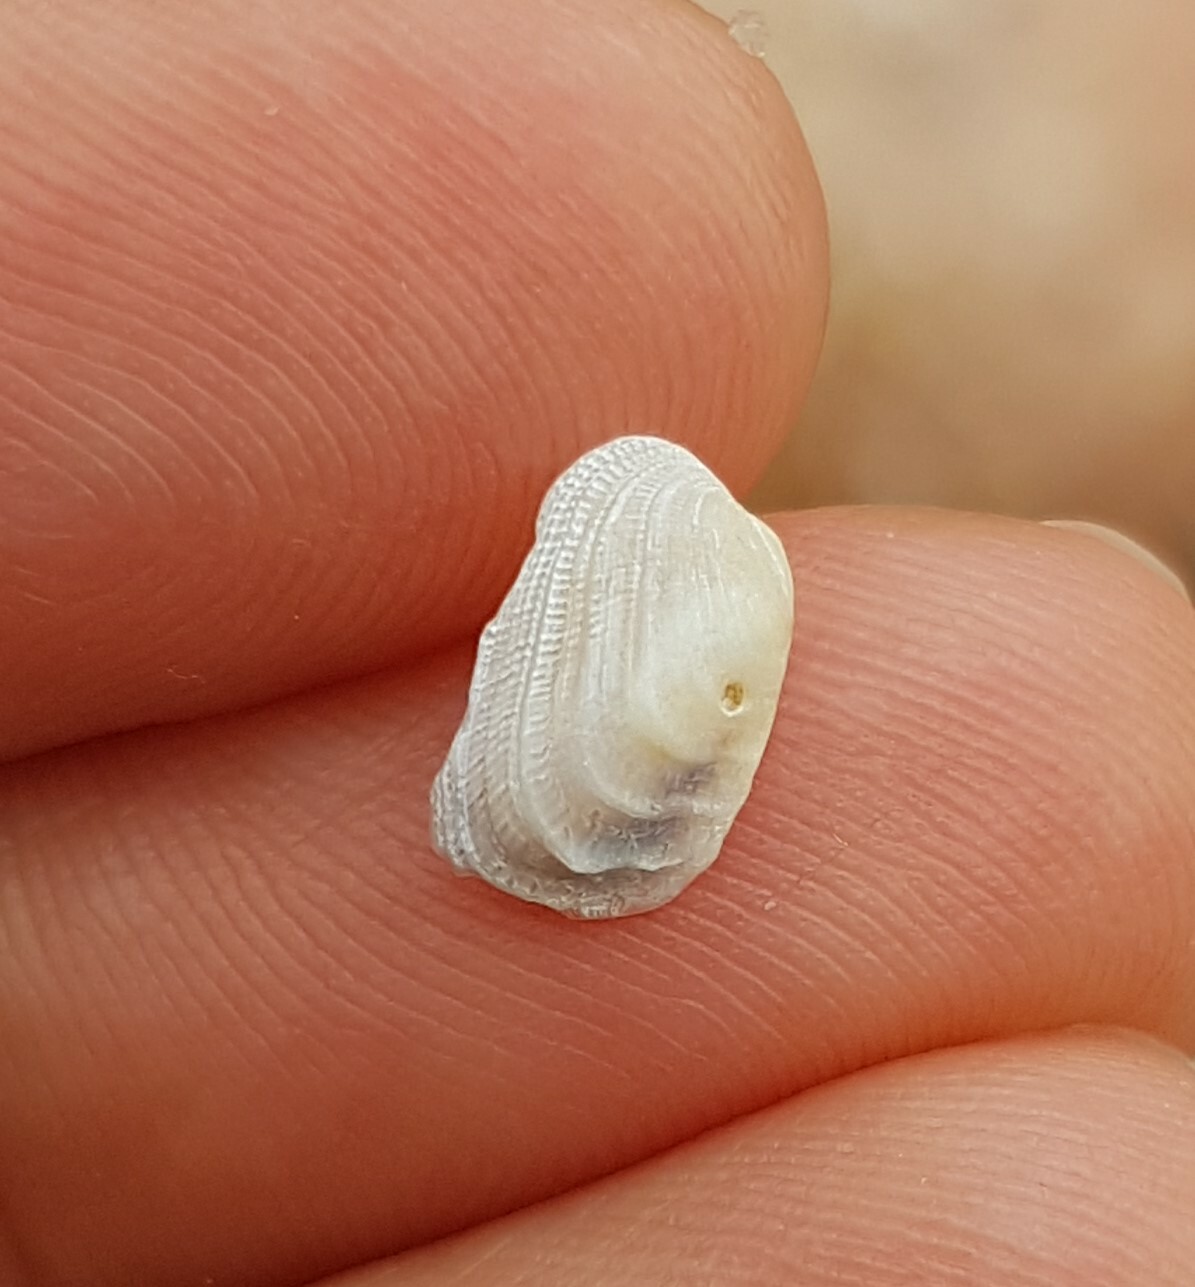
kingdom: Animalia
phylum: Mollusca
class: Bivalvia
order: Venerida
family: Veneridae
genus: Irus
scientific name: Irus irus
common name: Irus clam
